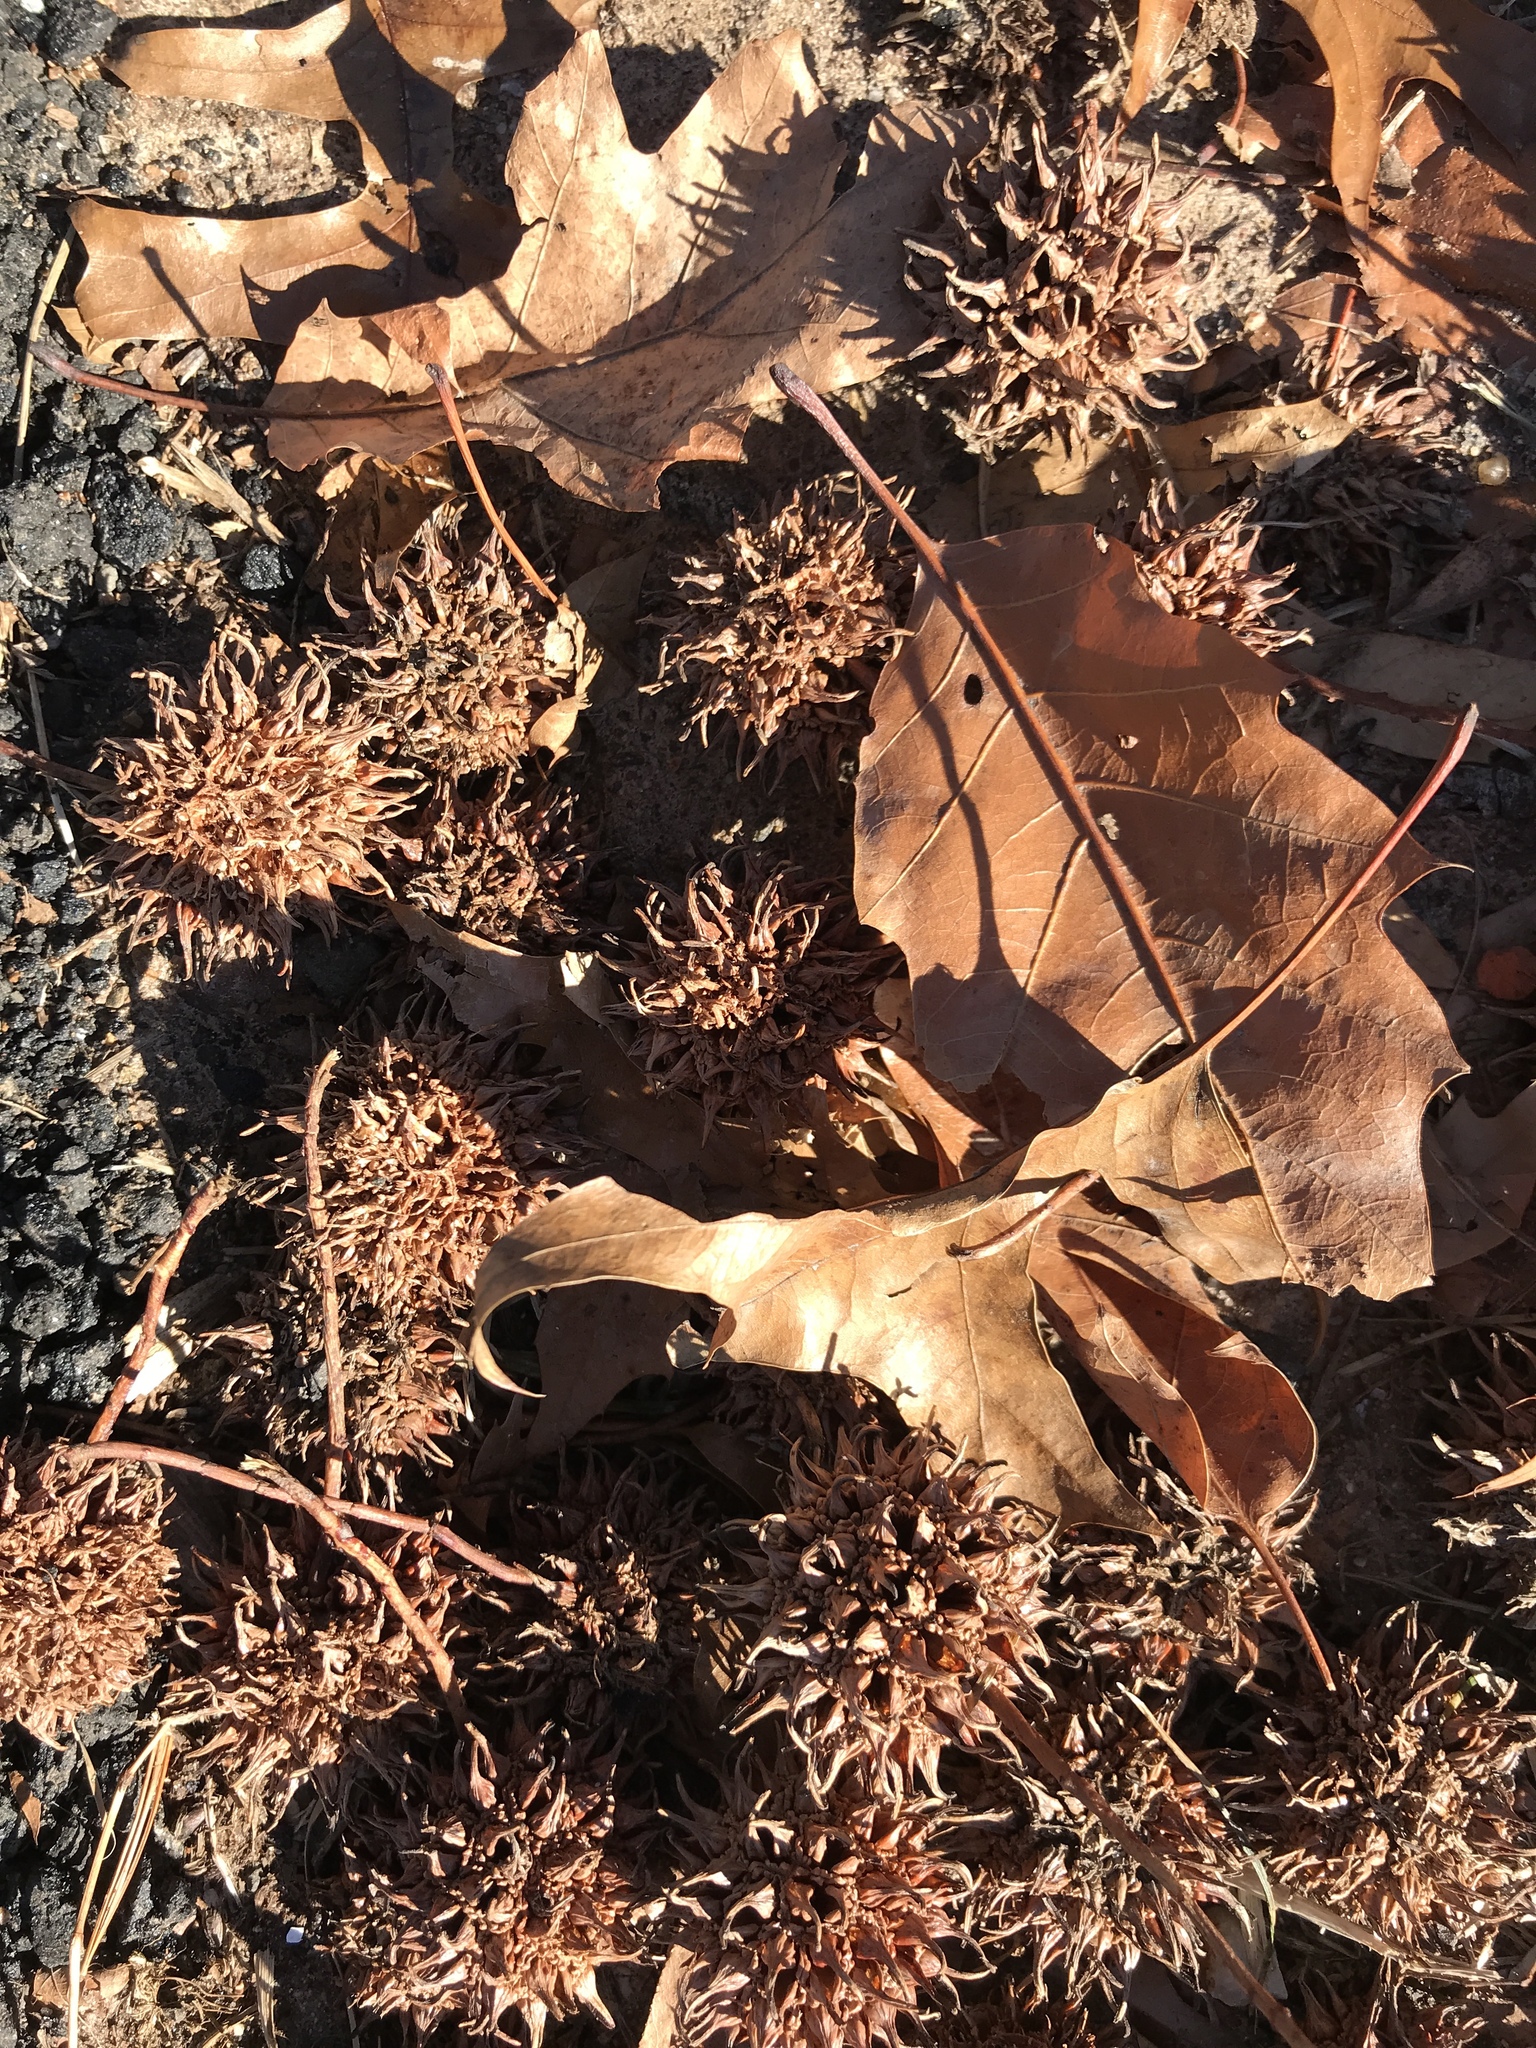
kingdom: Plantae
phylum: Tracheophyta
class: Magnoliopsida
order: Saxifragales
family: Altingiaceae
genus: Liquidambar
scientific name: Liquidambar styraciflua
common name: Sweet gum
